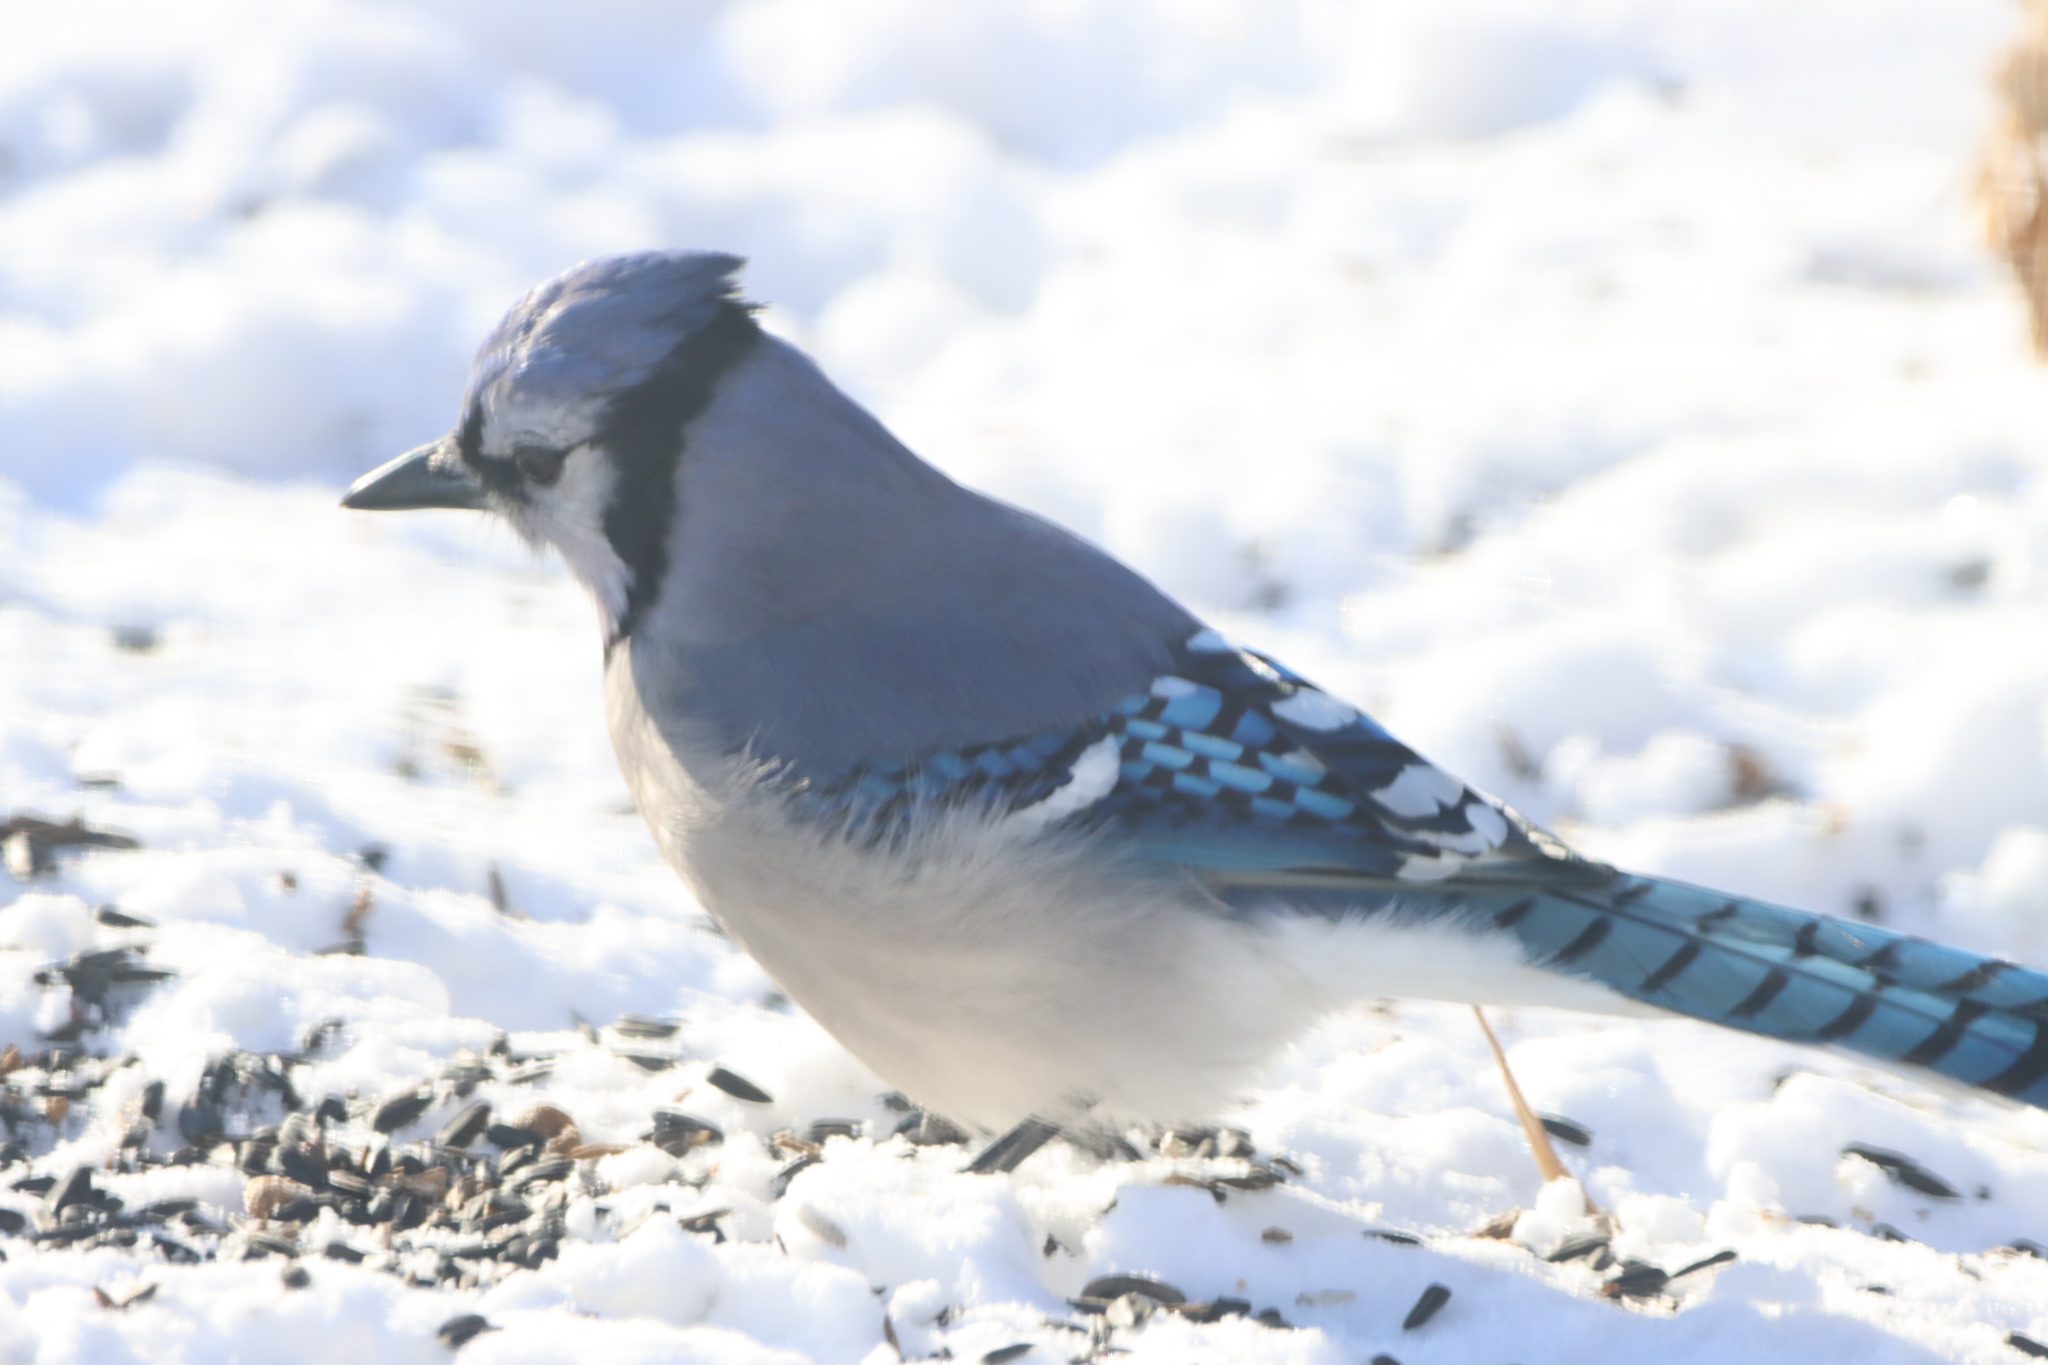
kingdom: Animalia
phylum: Chordata
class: Aves
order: Passeriformes
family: Corvidae
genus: Cyanocitta
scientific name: Cyanocitta cristata
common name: Blue jay
